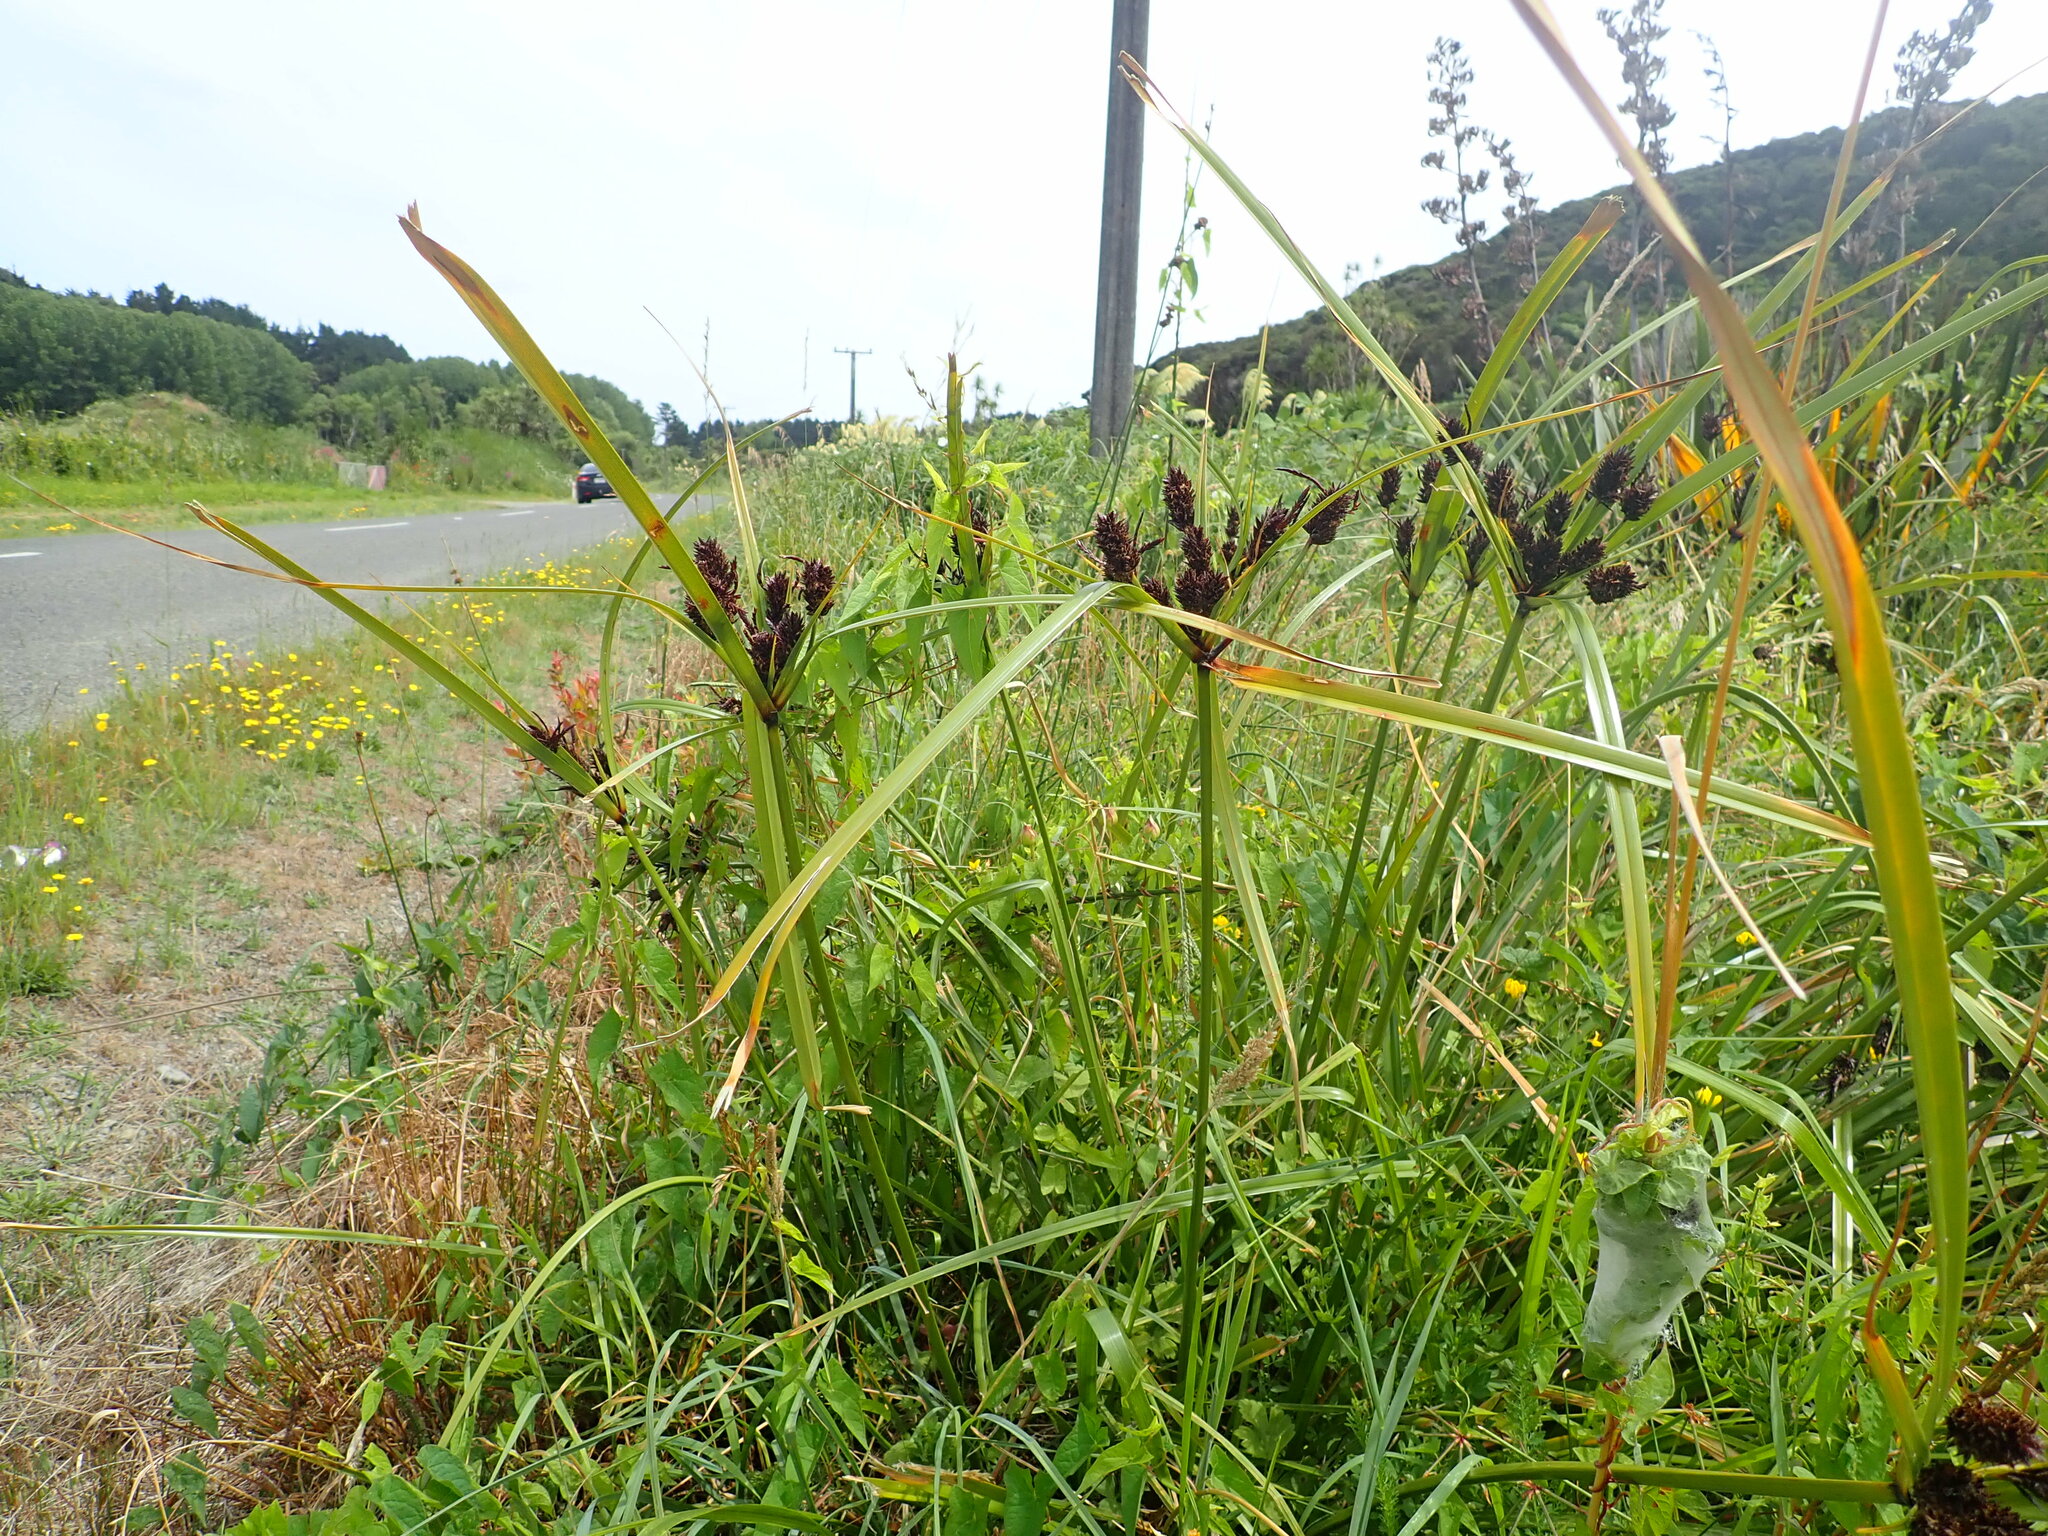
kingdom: Plantae
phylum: Tracheophyta
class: Liliopsida
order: Poales
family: Cyperaceae
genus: Cyperus
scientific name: Cyperus ustulatus
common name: Giant umbrella-sedge
